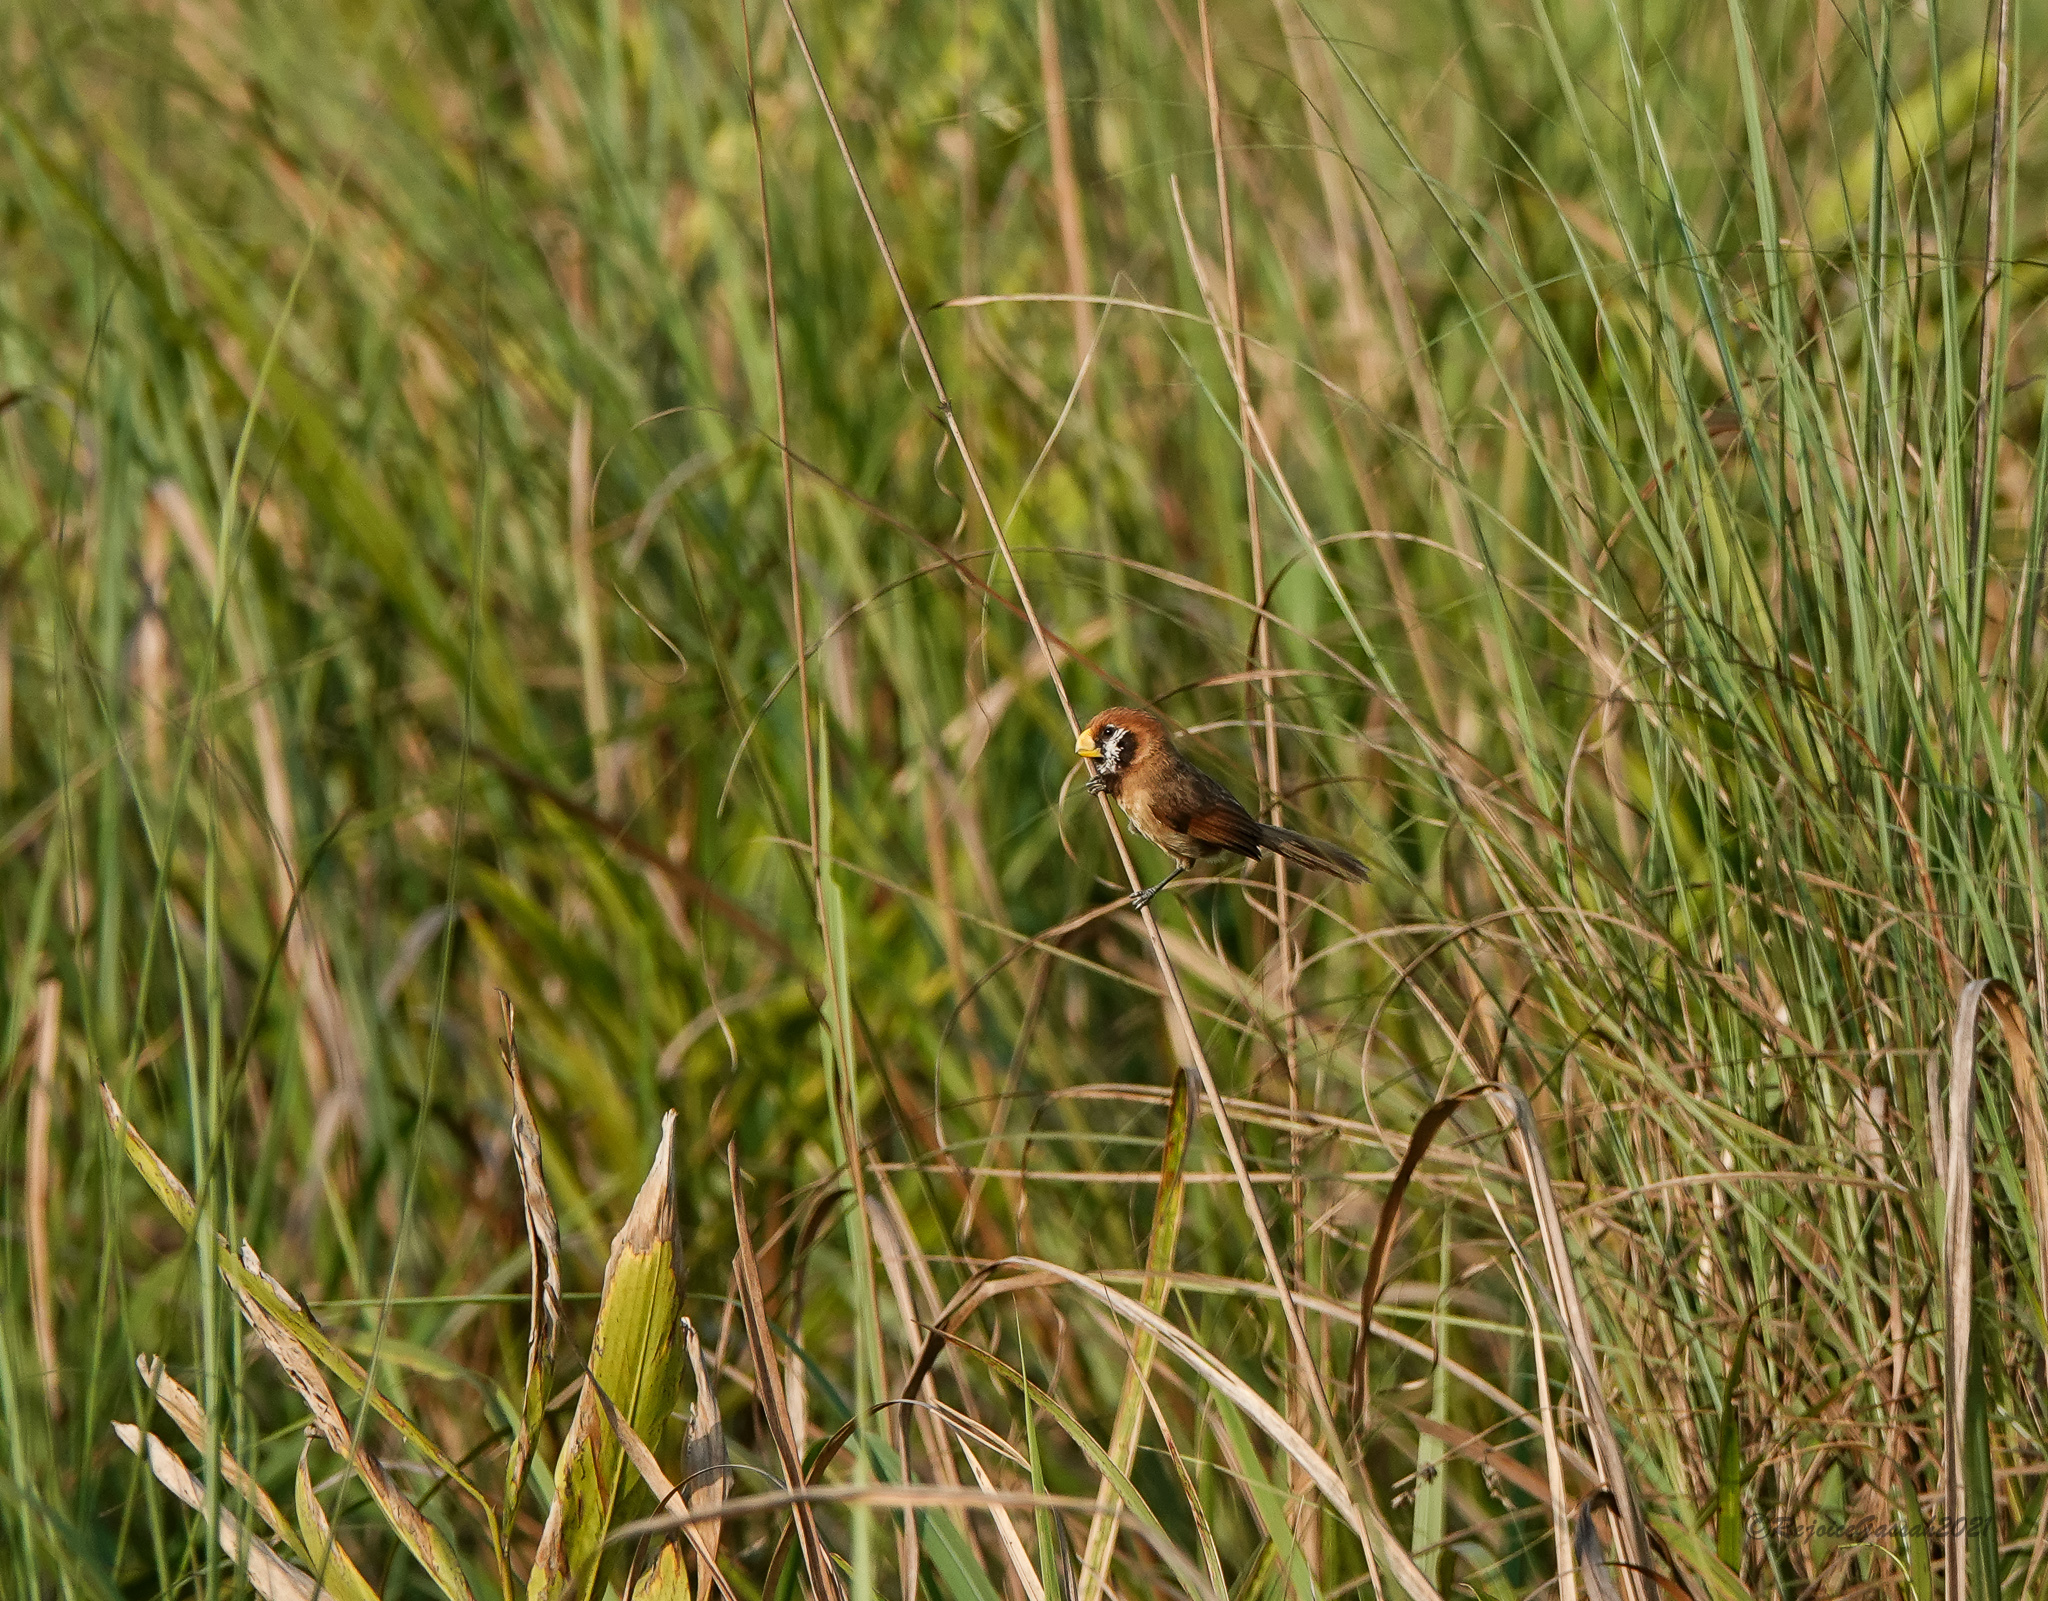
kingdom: Animalia
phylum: Chordata
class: Aves
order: Passeriformes
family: Sylviidae
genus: Paradoxornis
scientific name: Paradoxornis flavirostris
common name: Black-breasted parrotbill
